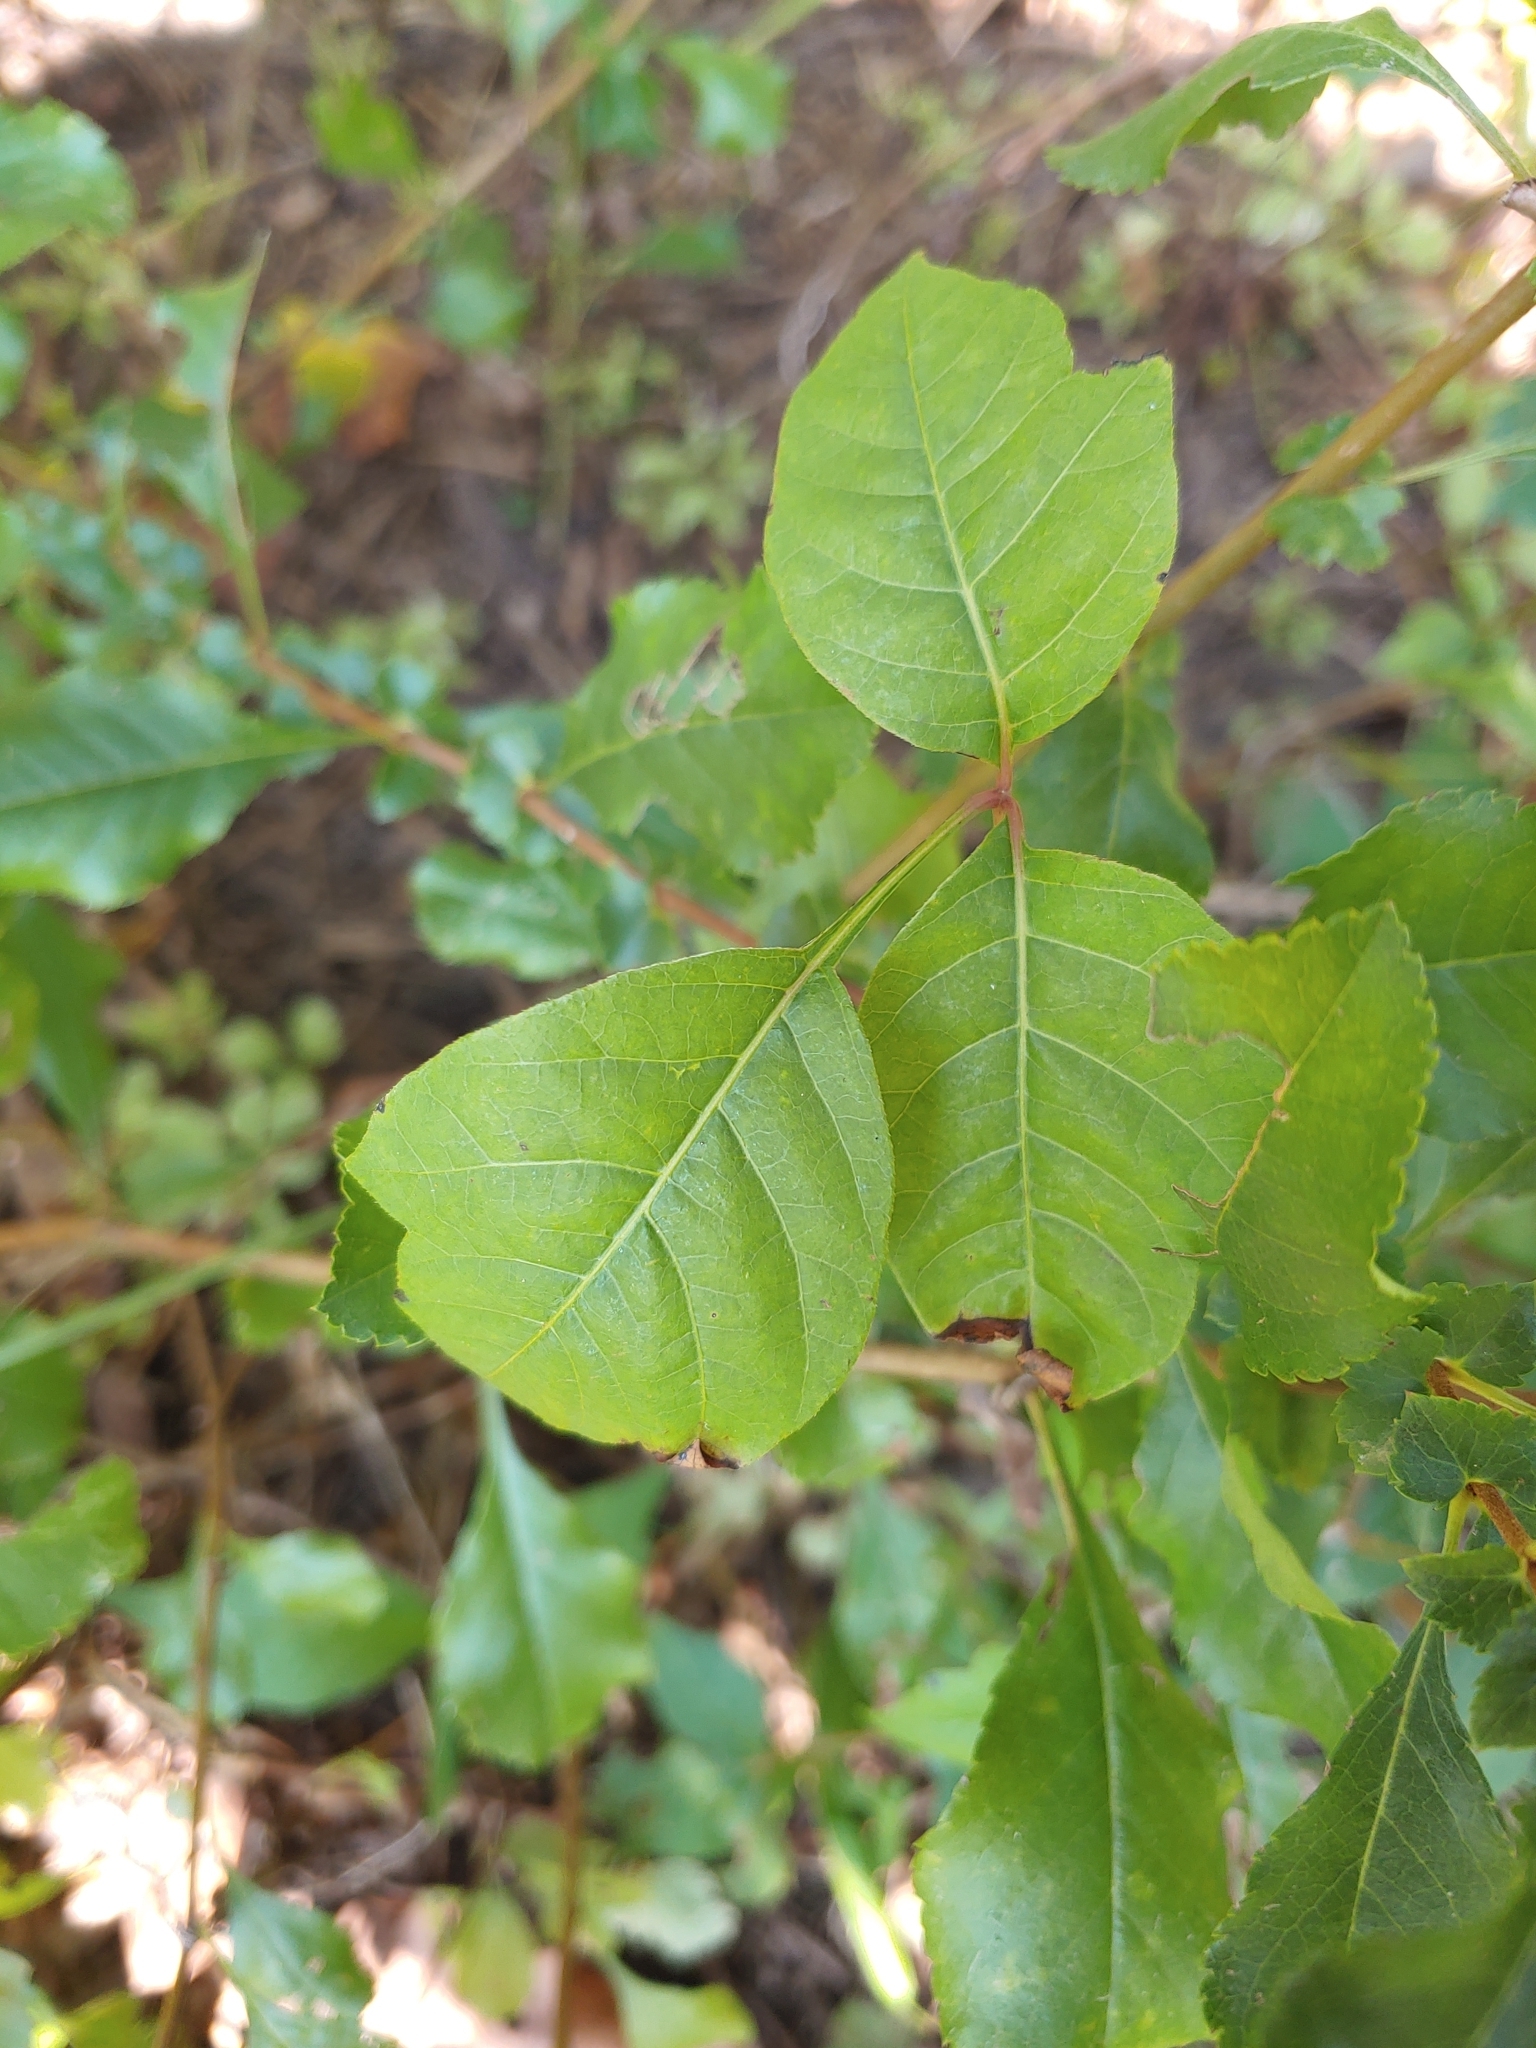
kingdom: Plantae
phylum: Tracheophyta
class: Magnoliopsida
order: Sapindales
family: Anacardiaceae
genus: Toxicodendron
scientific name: Toxicodendron radicans
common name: Poison ivy
